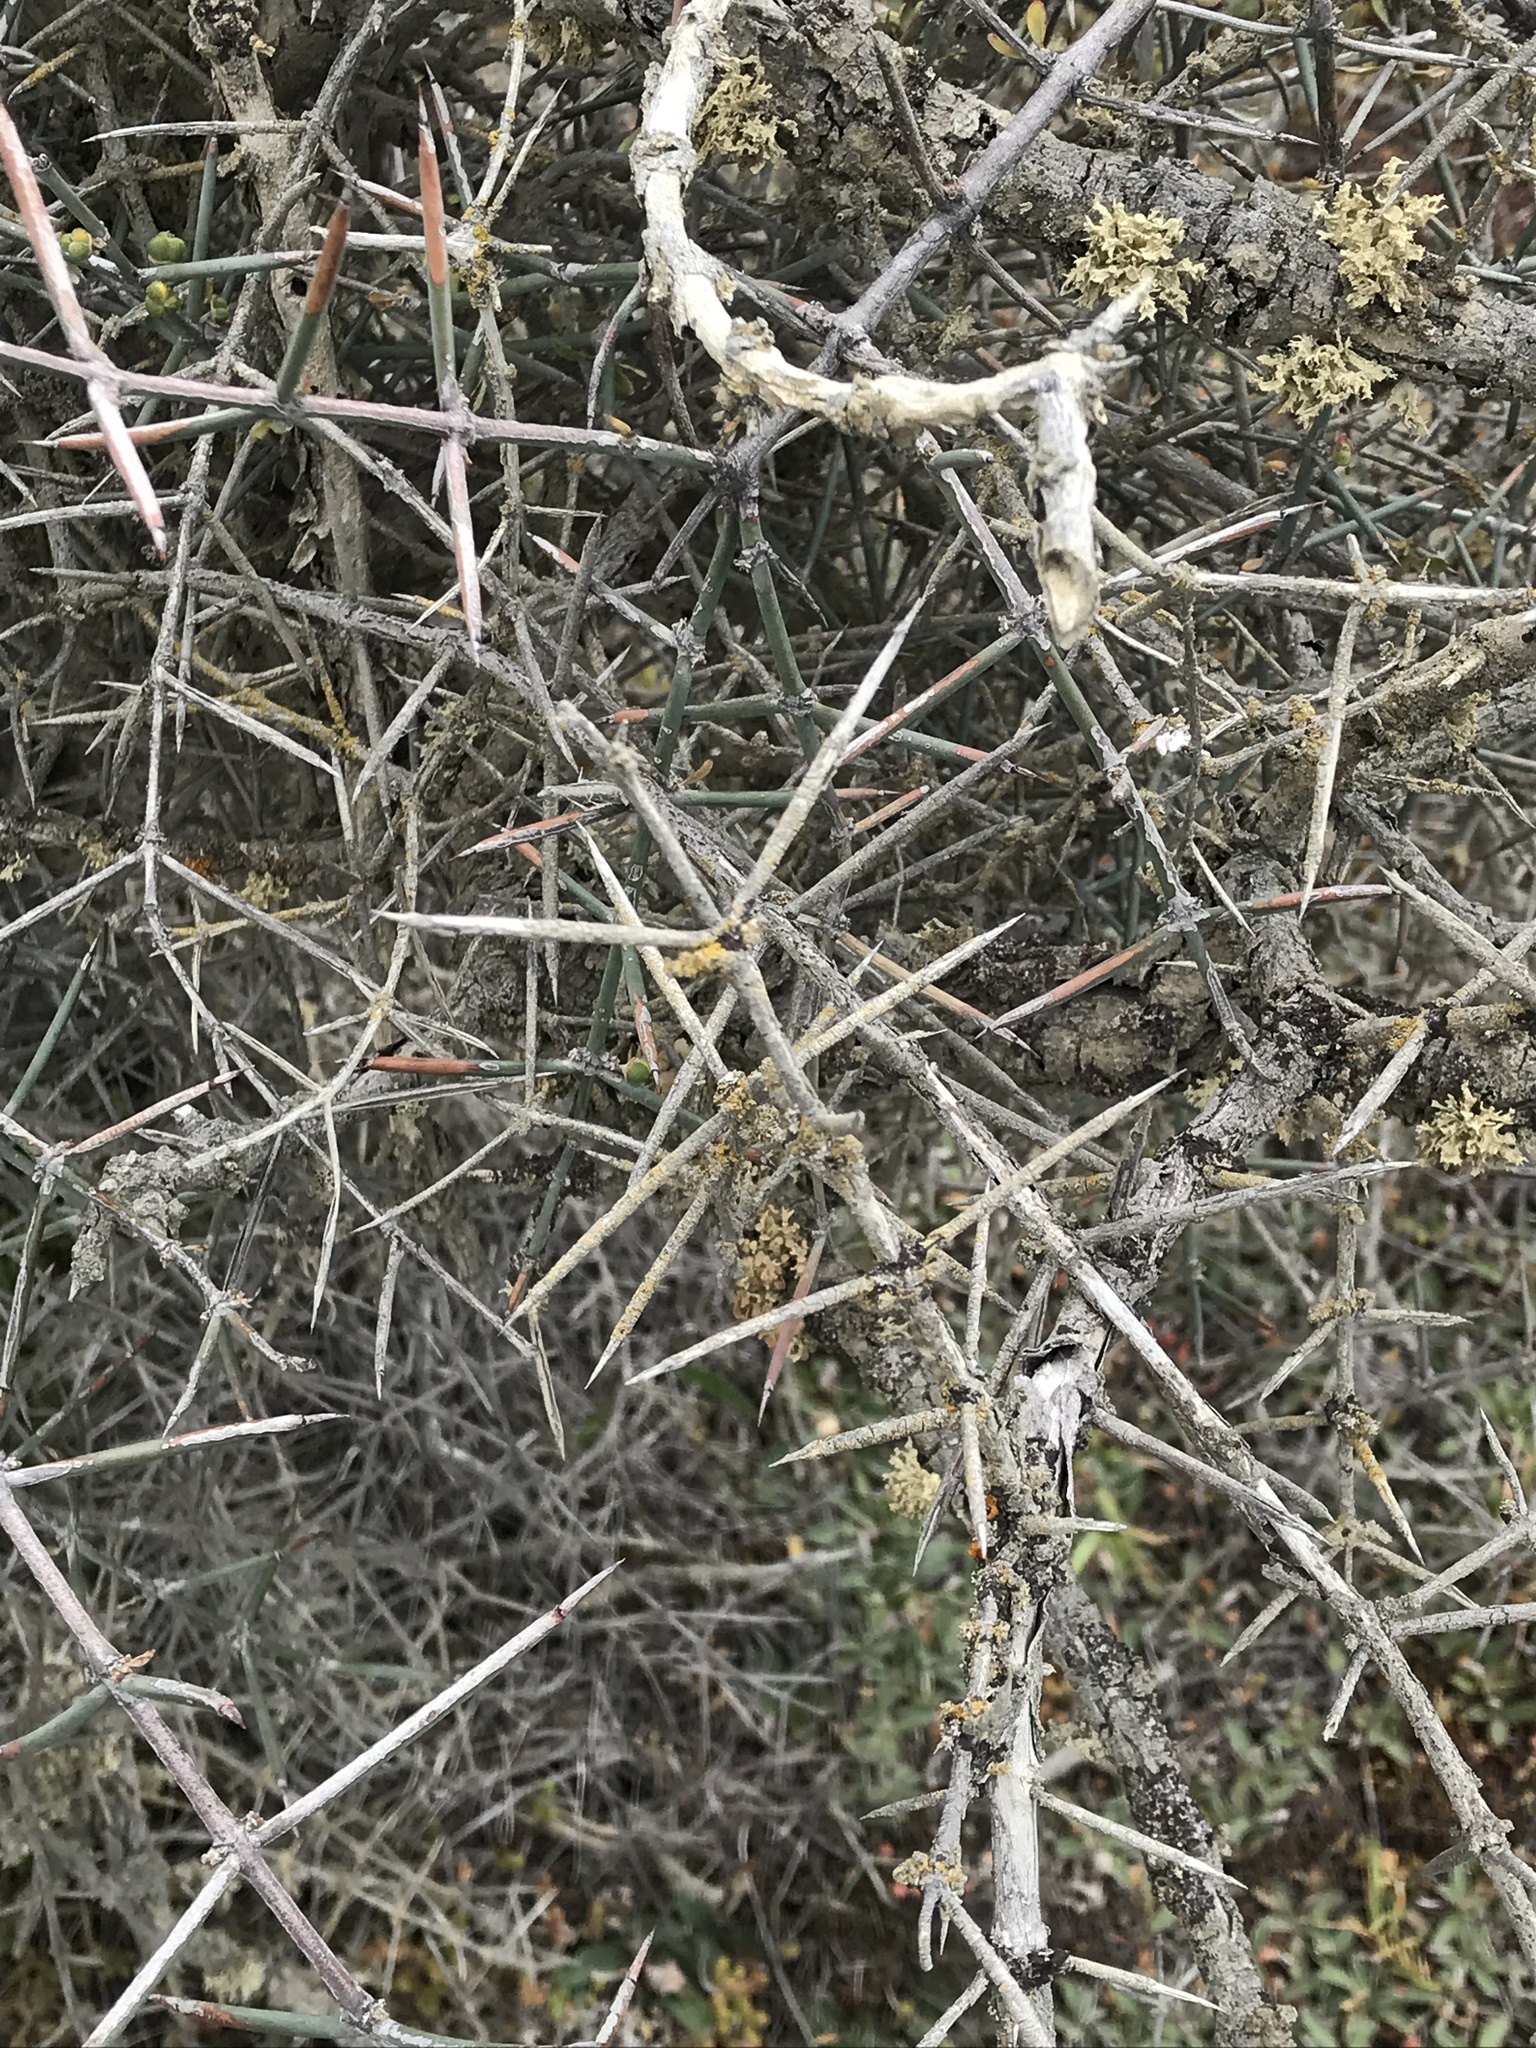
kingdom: Plantae
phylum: Tracheophyta
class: Magnoliopsida
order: Rosales
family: Rhamnaceae
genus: Discaria
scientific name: Discaria toumatou
